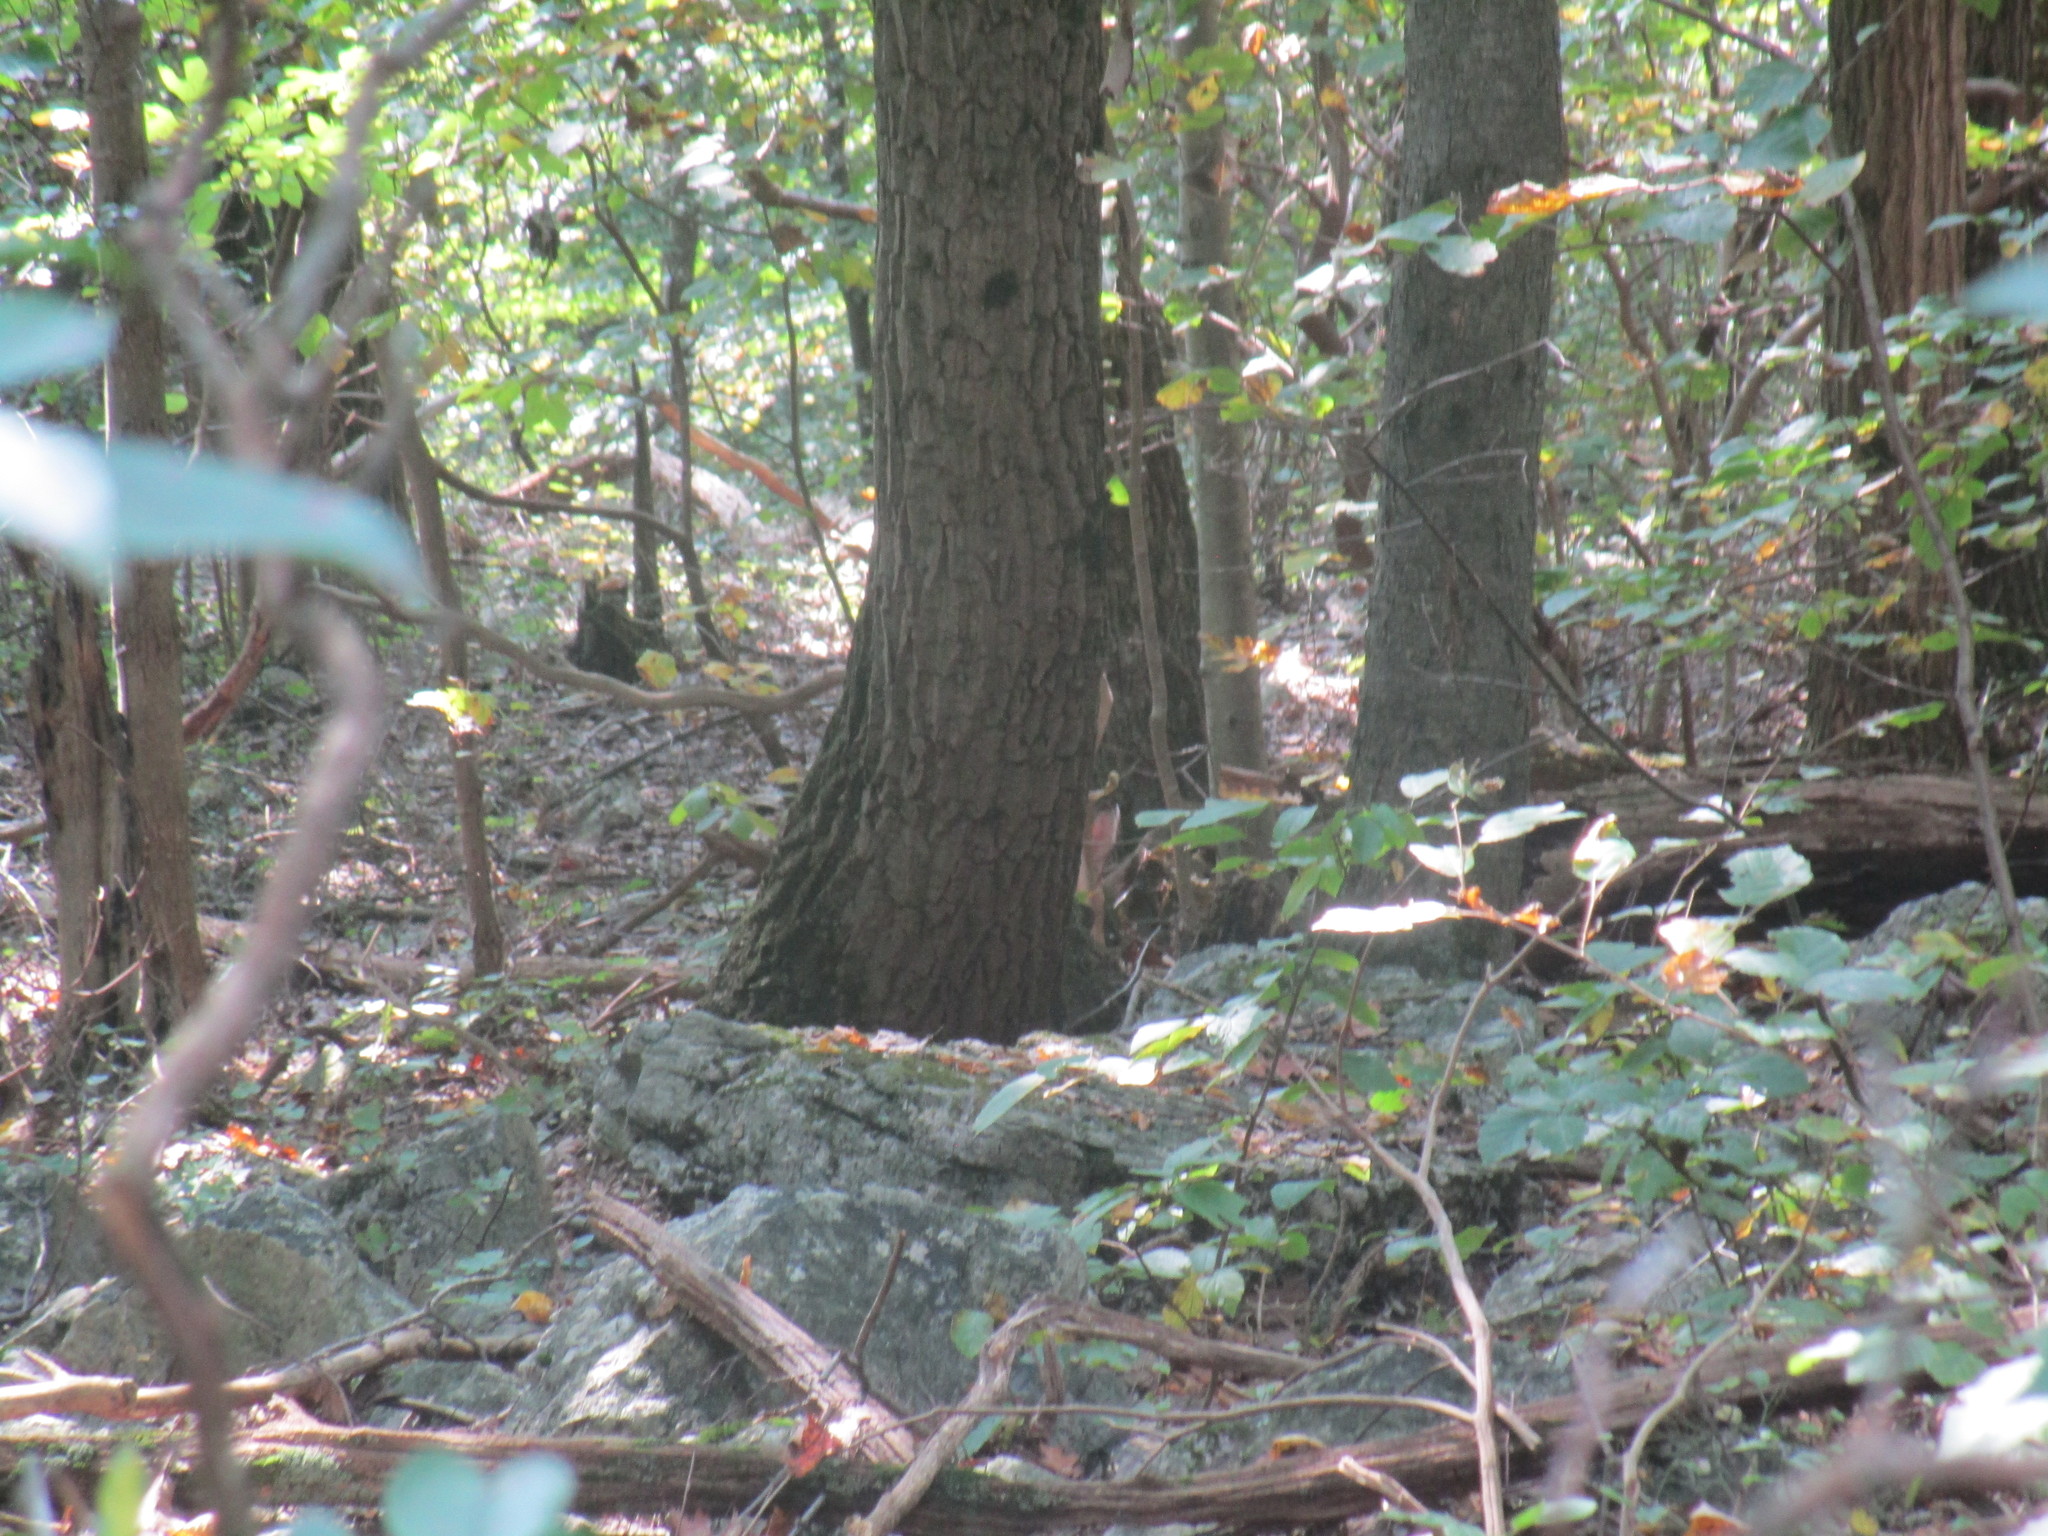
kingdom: Animalia
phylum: Chordata
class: Mammalia
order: Artiodactyla
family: Cervidae
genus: Odocoileus
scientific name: Odocoileus virginianus
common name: White-tailed deer
